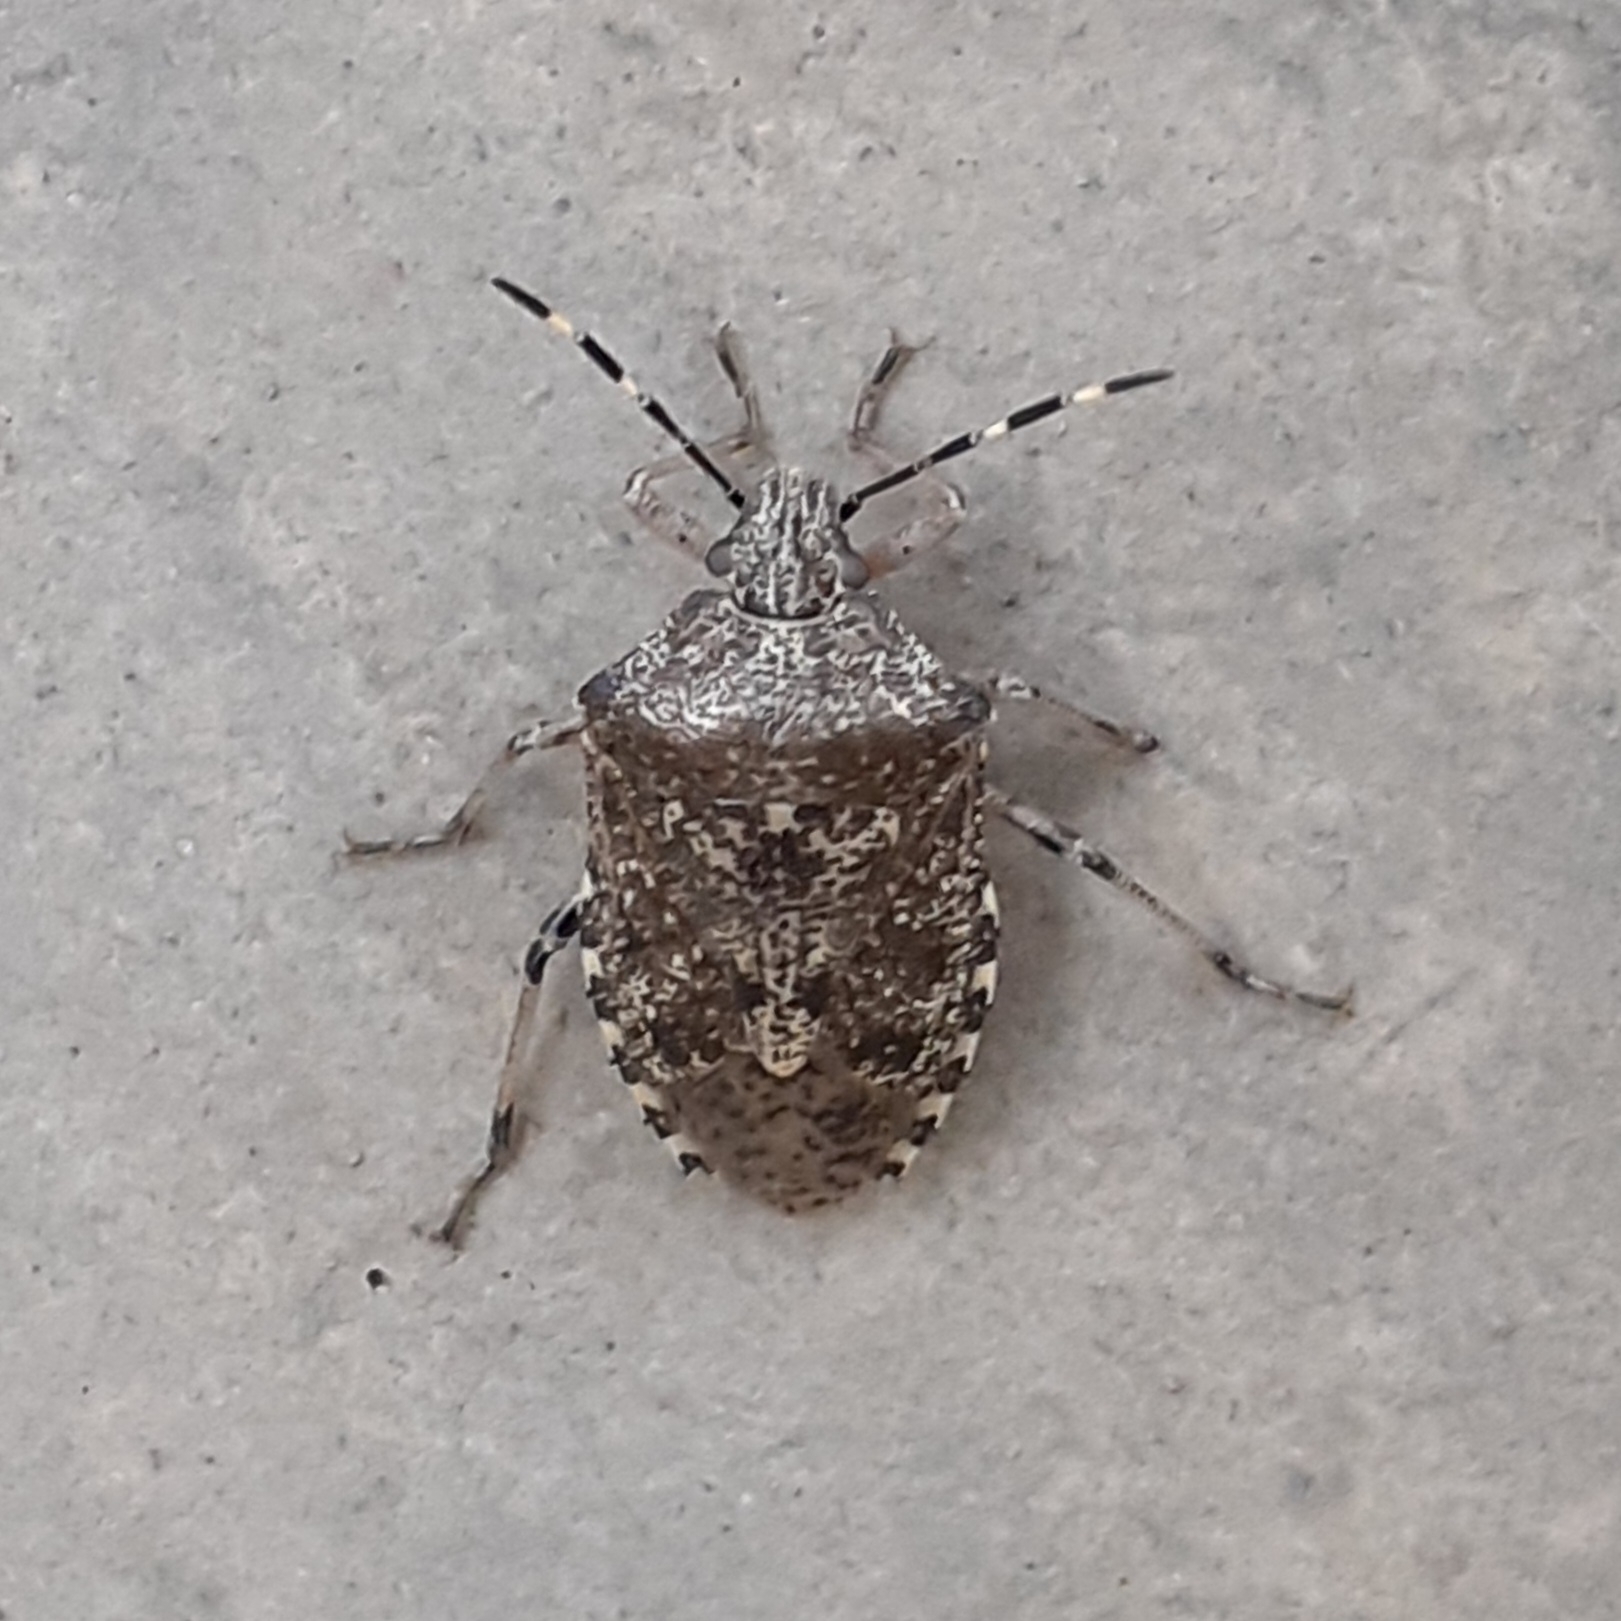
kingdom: Animalia
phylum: Arthropoda
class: Insecta
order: Hemiptera
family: Pentatomidae
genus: Rhaphigaster
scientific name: Rhaphigaster nebulosa
